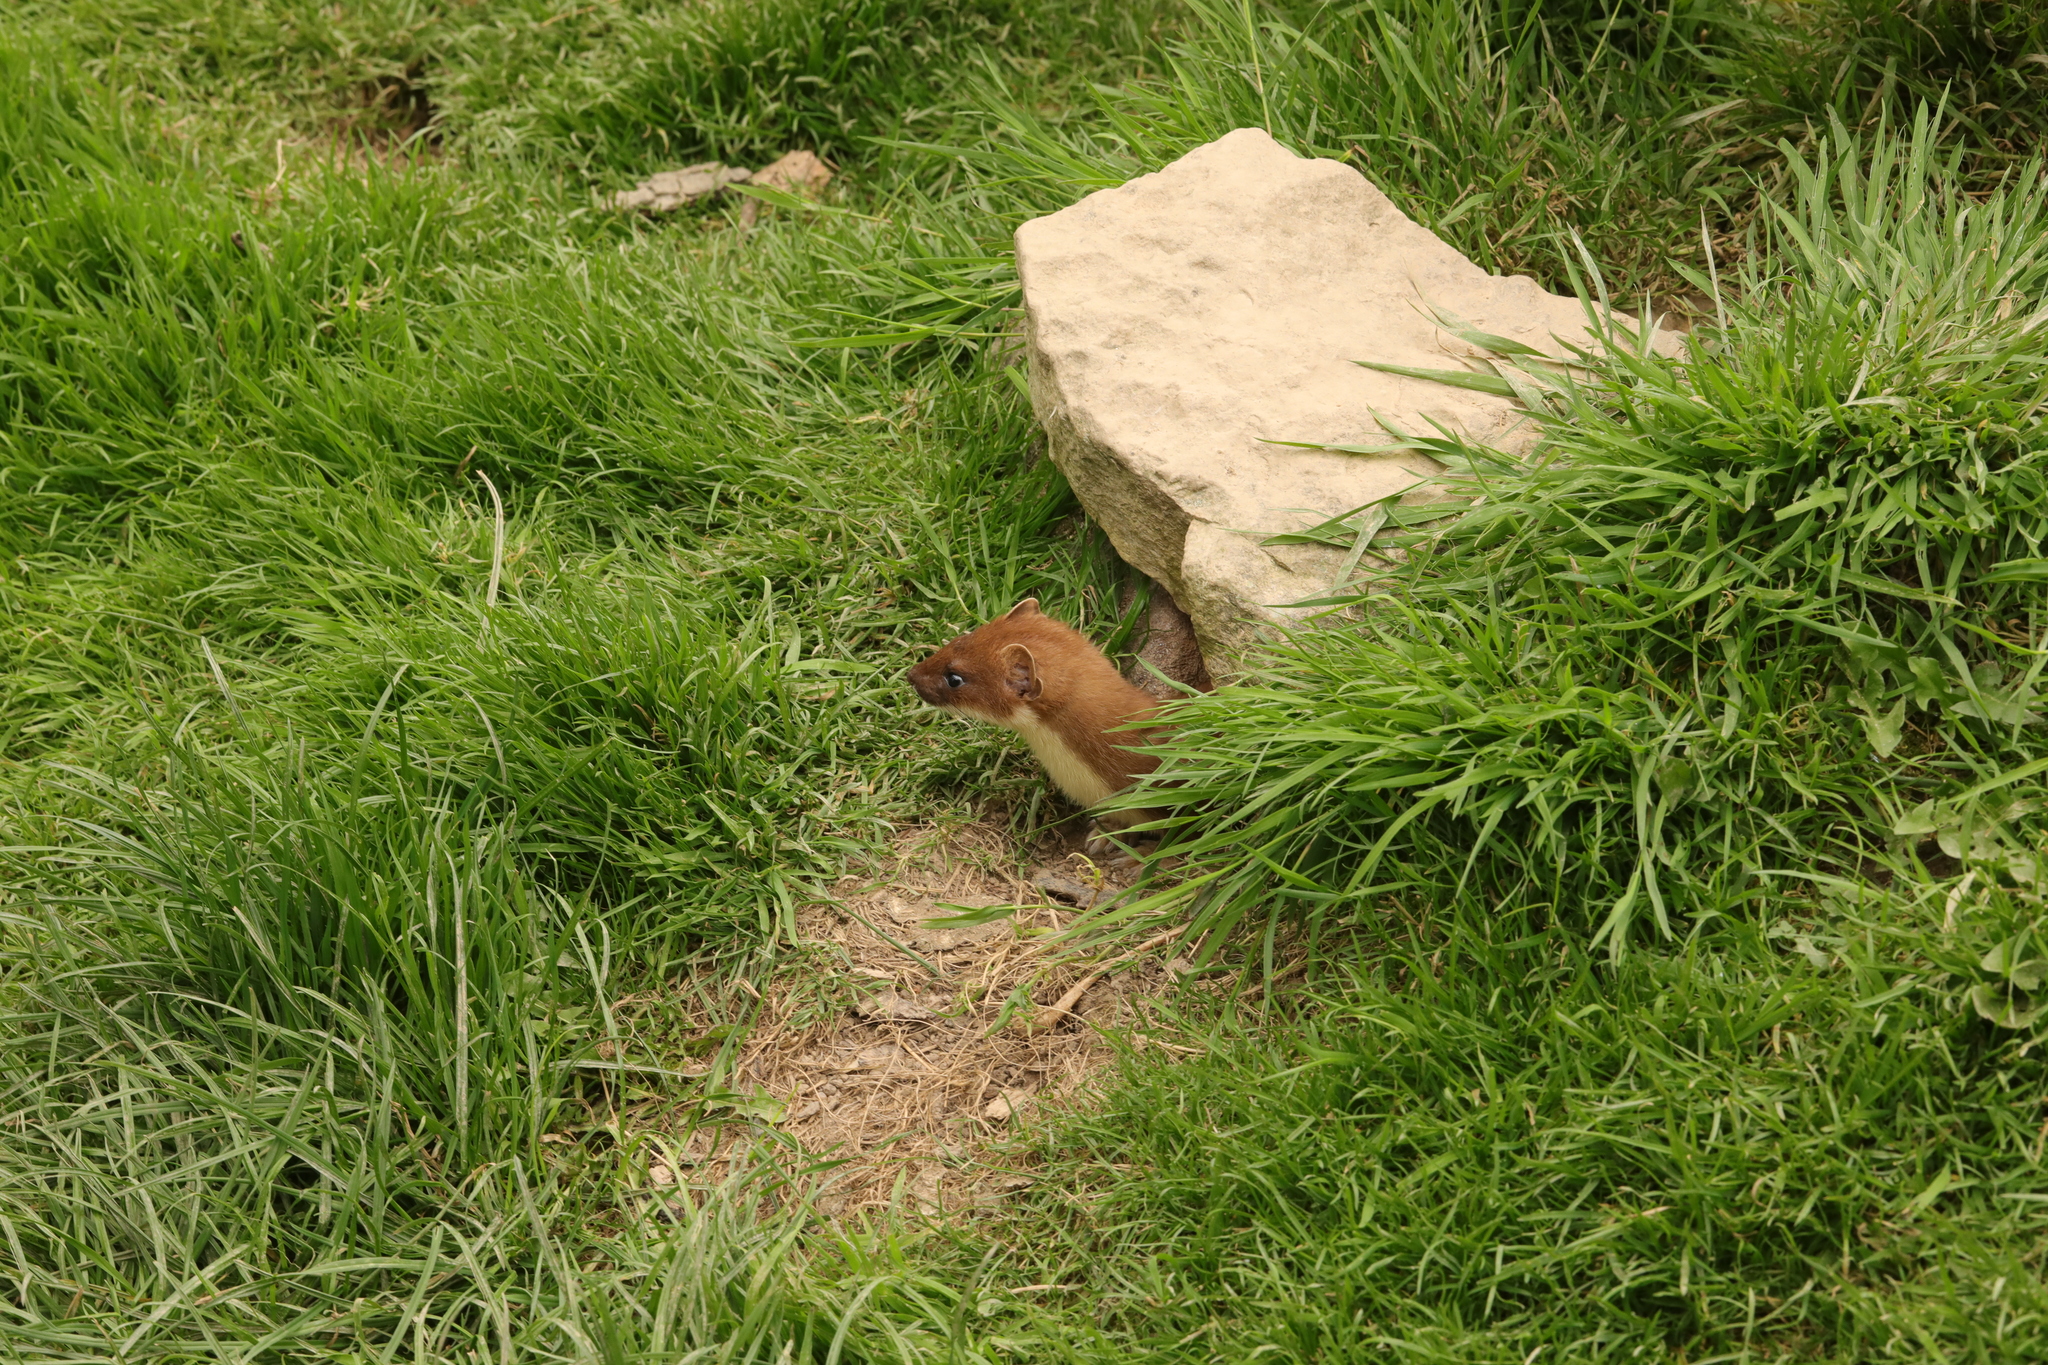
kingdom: Animalia
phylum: Chordata
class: Mammalia
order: Carnivora
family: Mustelidae
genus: Mustela
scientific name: Mustela nivalis
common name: Least weasel
